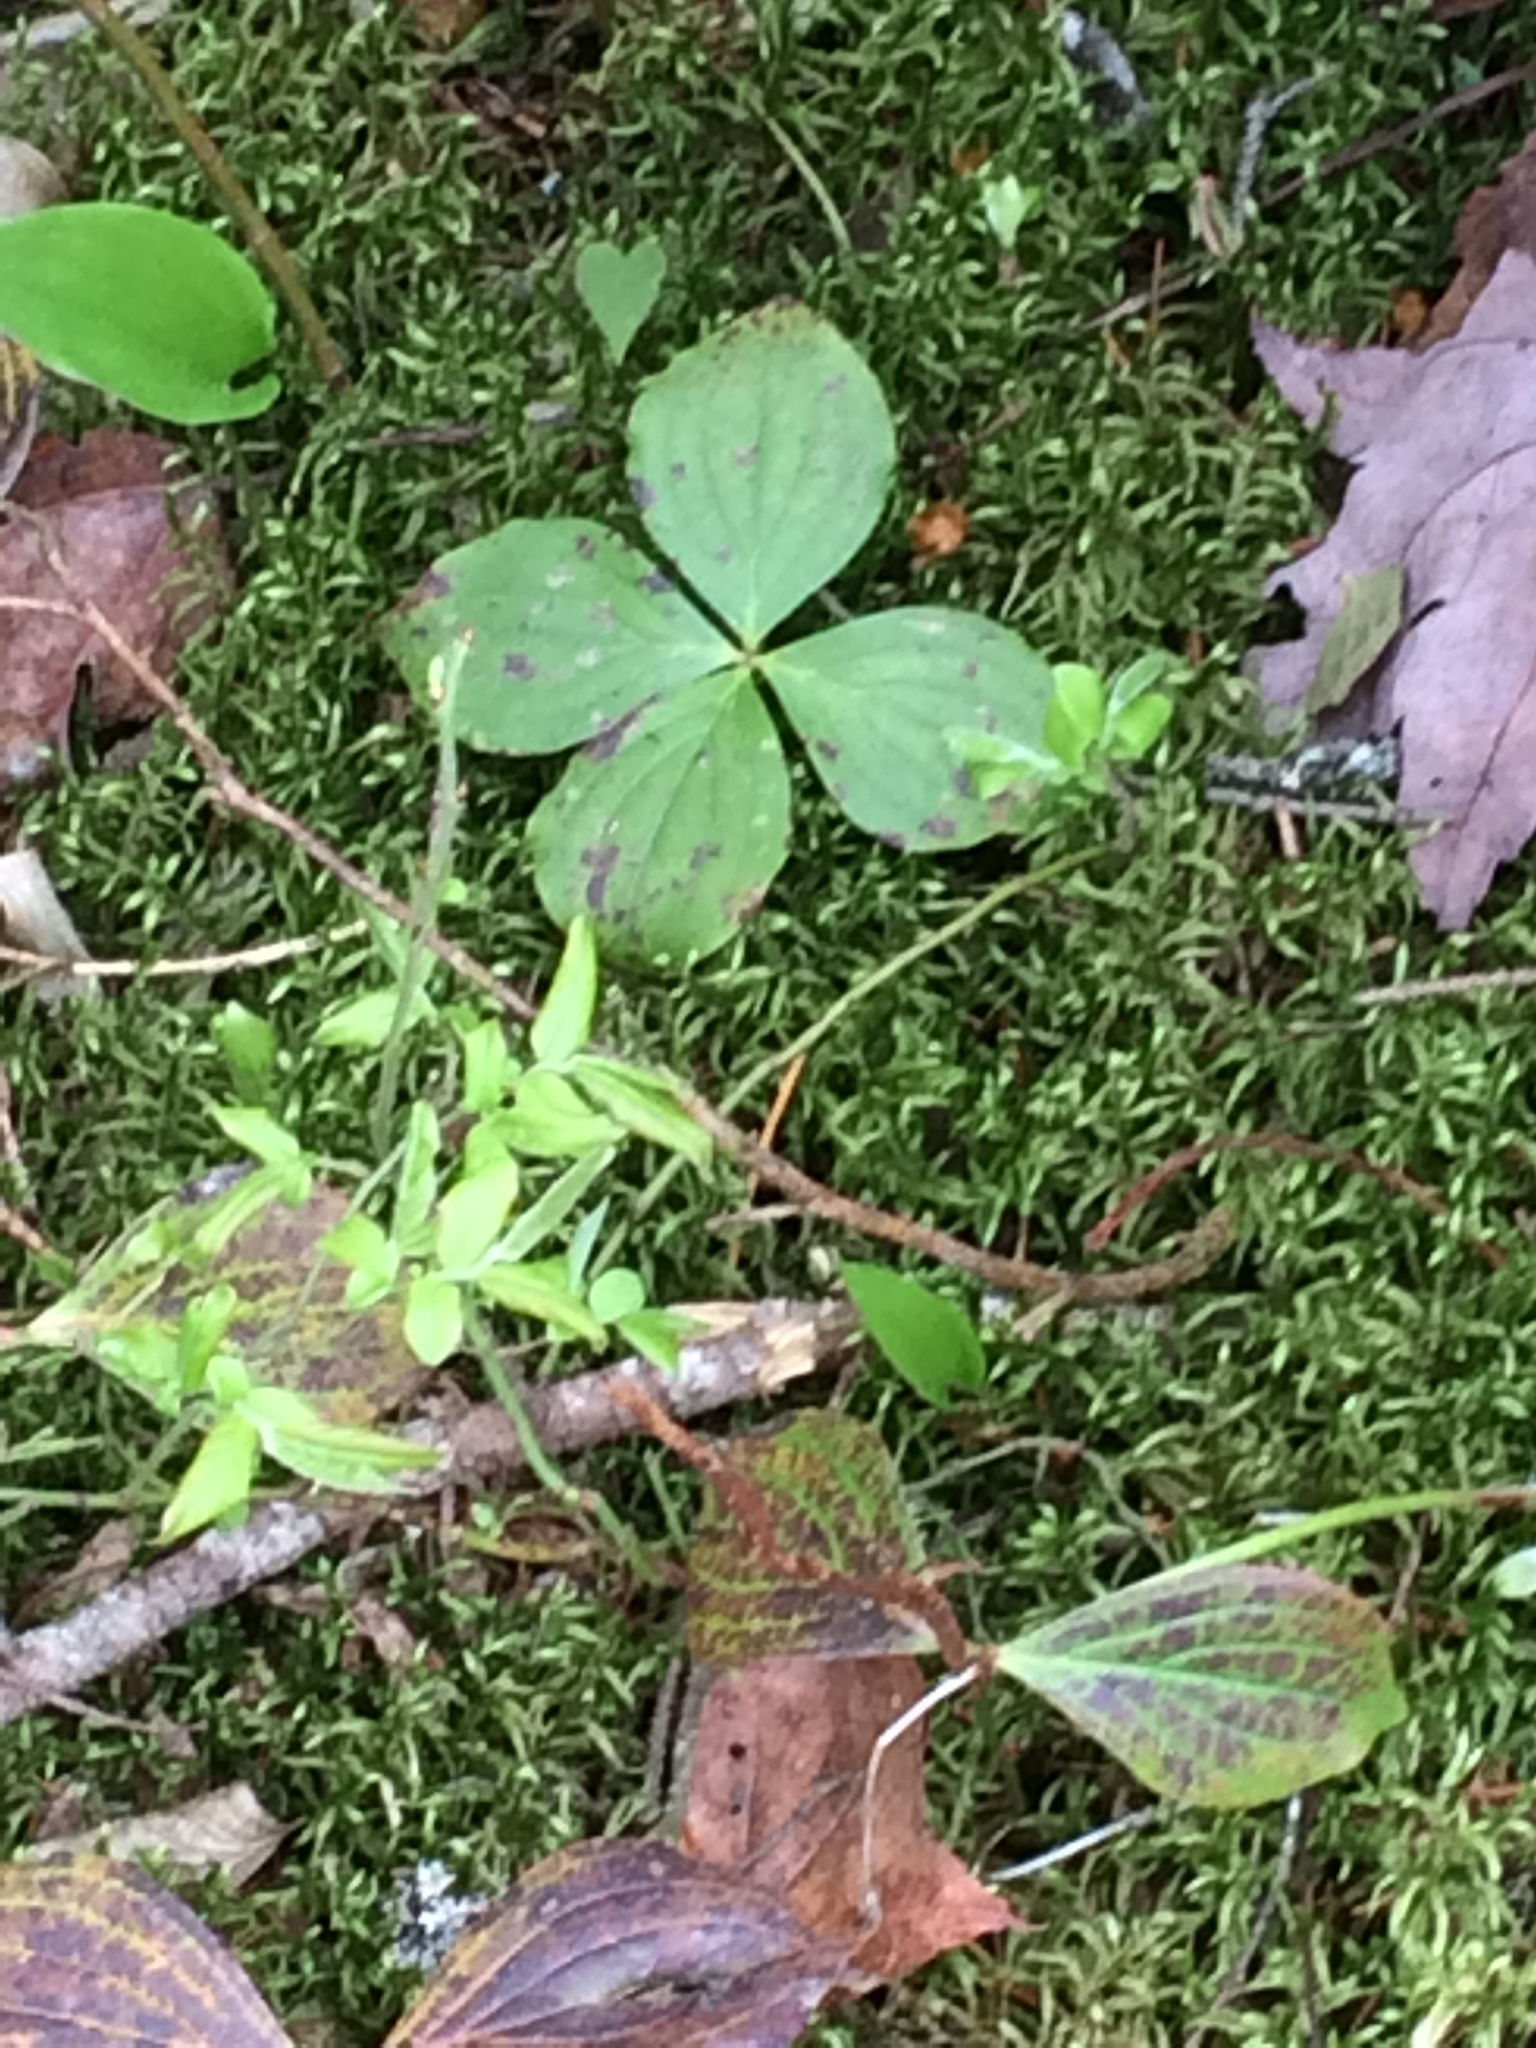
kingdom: Plantae
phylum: Tracheophyta
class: Magnoliopsida
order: Cornales
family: Cornaceae
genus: Cornus
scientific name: Cornus canadensis
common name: Creeping dogwood
